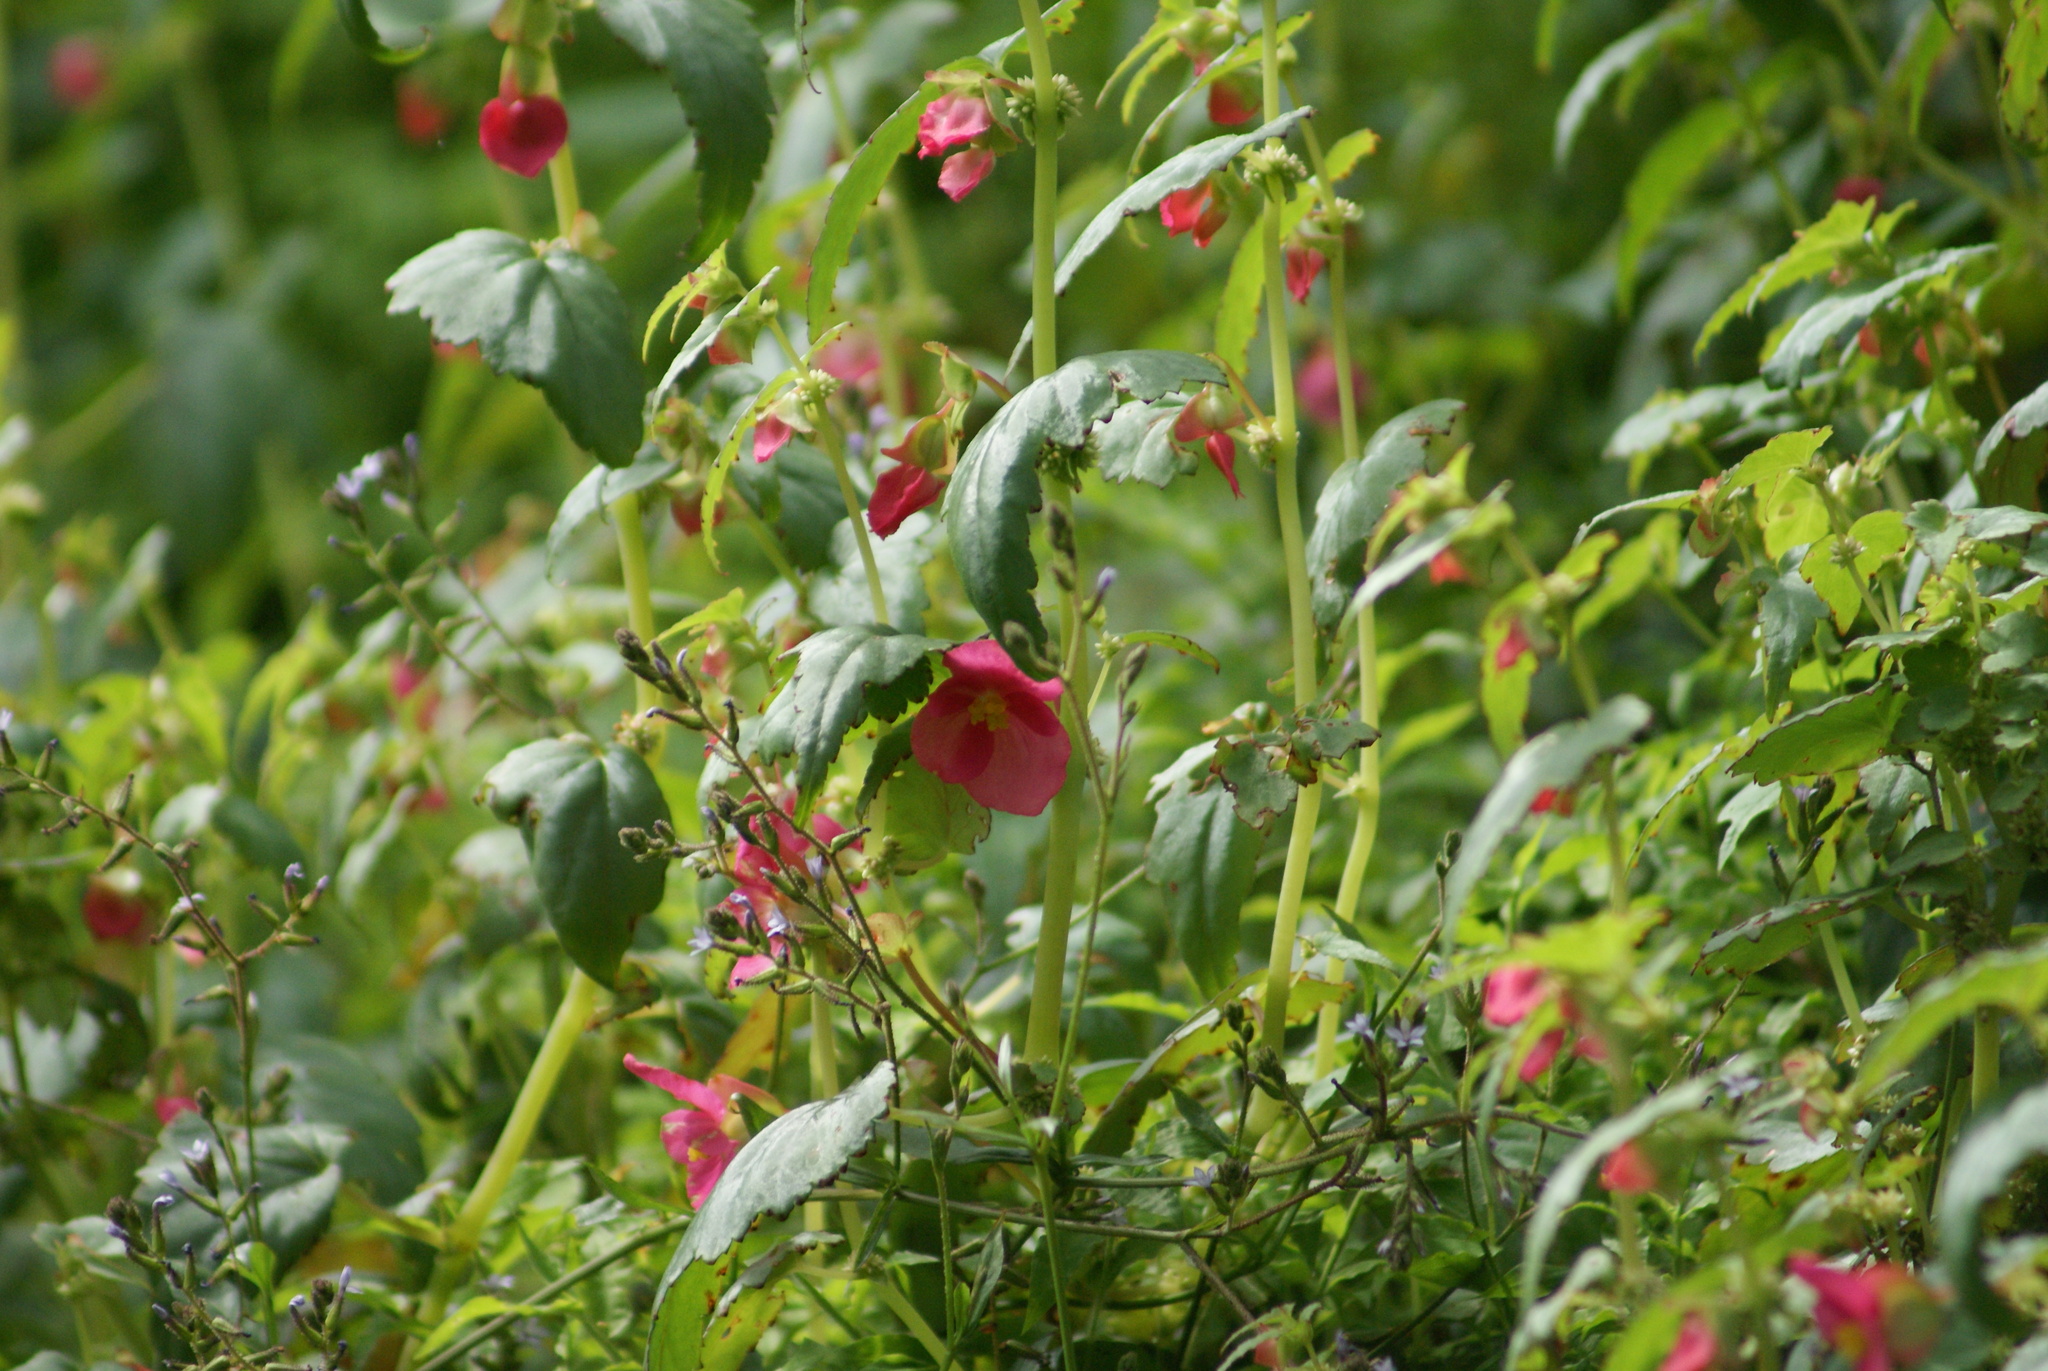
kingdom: Plantae
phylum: Tracheophyta
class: Magnoliopsida
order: Cucurbitales
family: Begoniaceae
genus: Begonia
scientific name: Begonia gracilis
